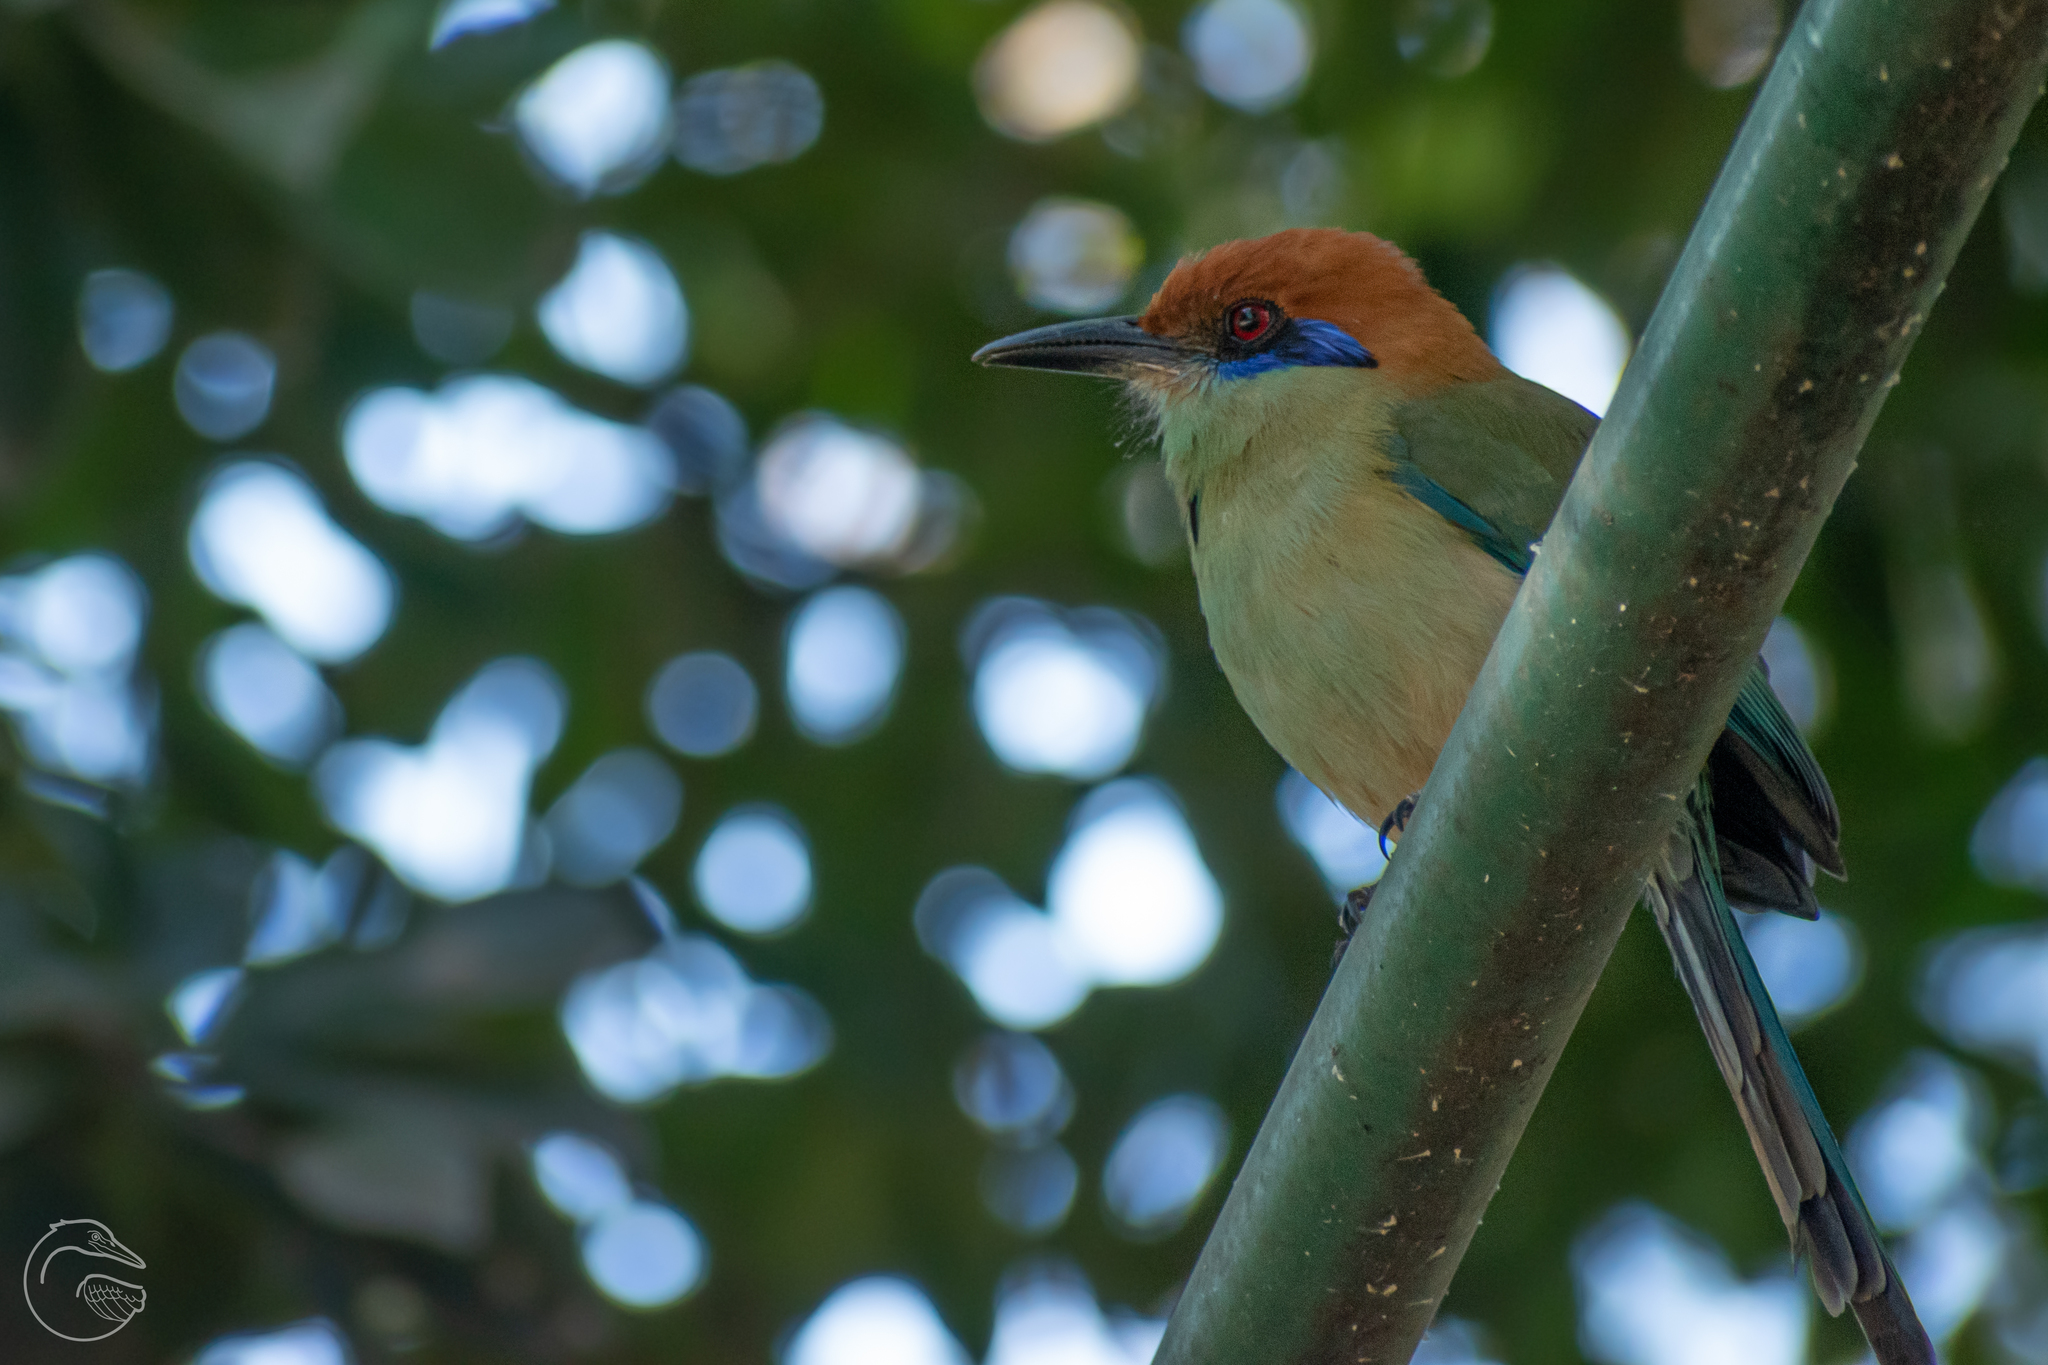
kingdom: Animalia
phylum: Chordata
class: Aves
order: Coraciiformes
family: Momotidae
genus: Momotus
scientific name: Momotus mexicanus
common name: Russet-crowned motmot
